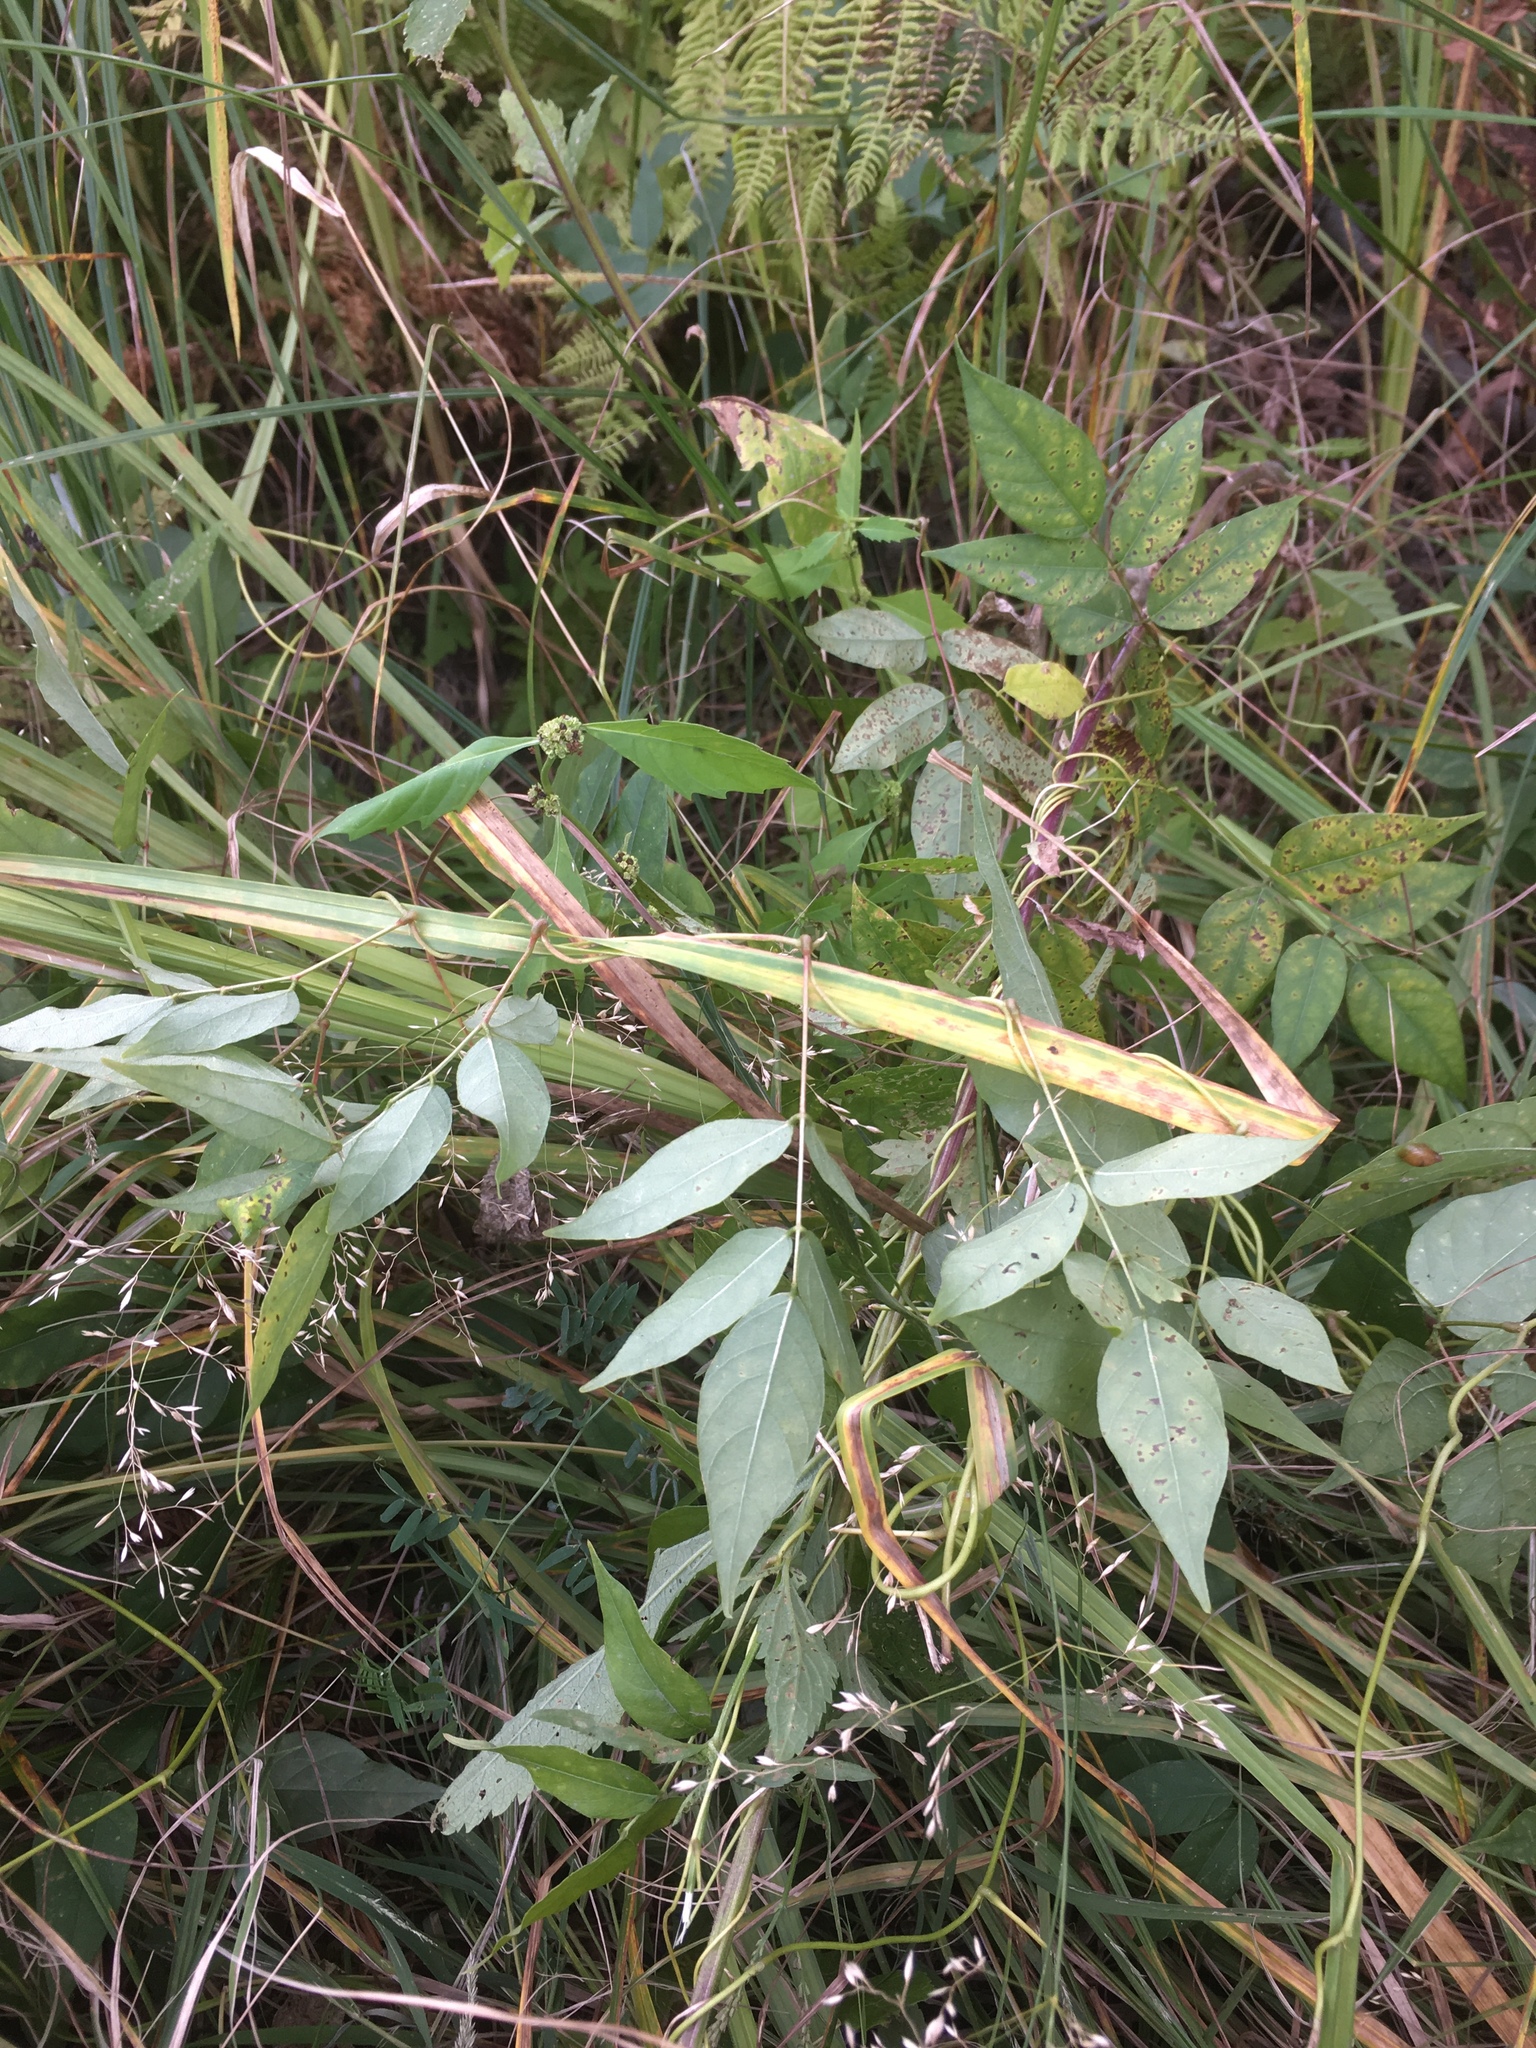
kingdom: Plantae
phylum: Tracheophyta
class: Magnoliopsida
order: Fabales
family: Fabaceae
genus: Apios
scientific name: Apios americana
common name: American potato-bean
